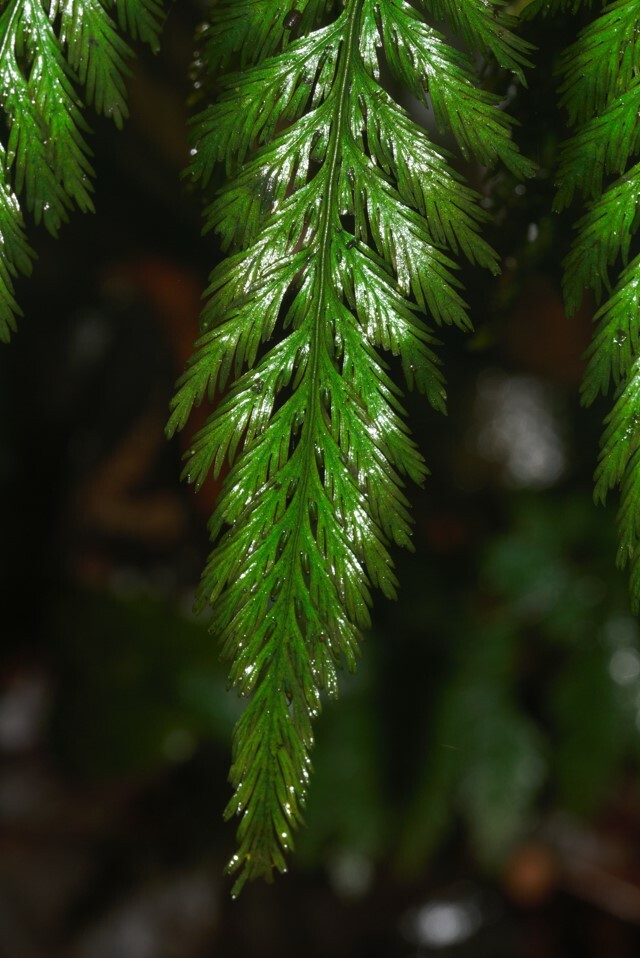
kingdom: Plantae
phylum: Tracheophyta
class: Polypodiopsida
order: Hymenophyllales
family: Hymenophyllaceae
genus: Trichomanes
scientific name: Trichomanes elegans
